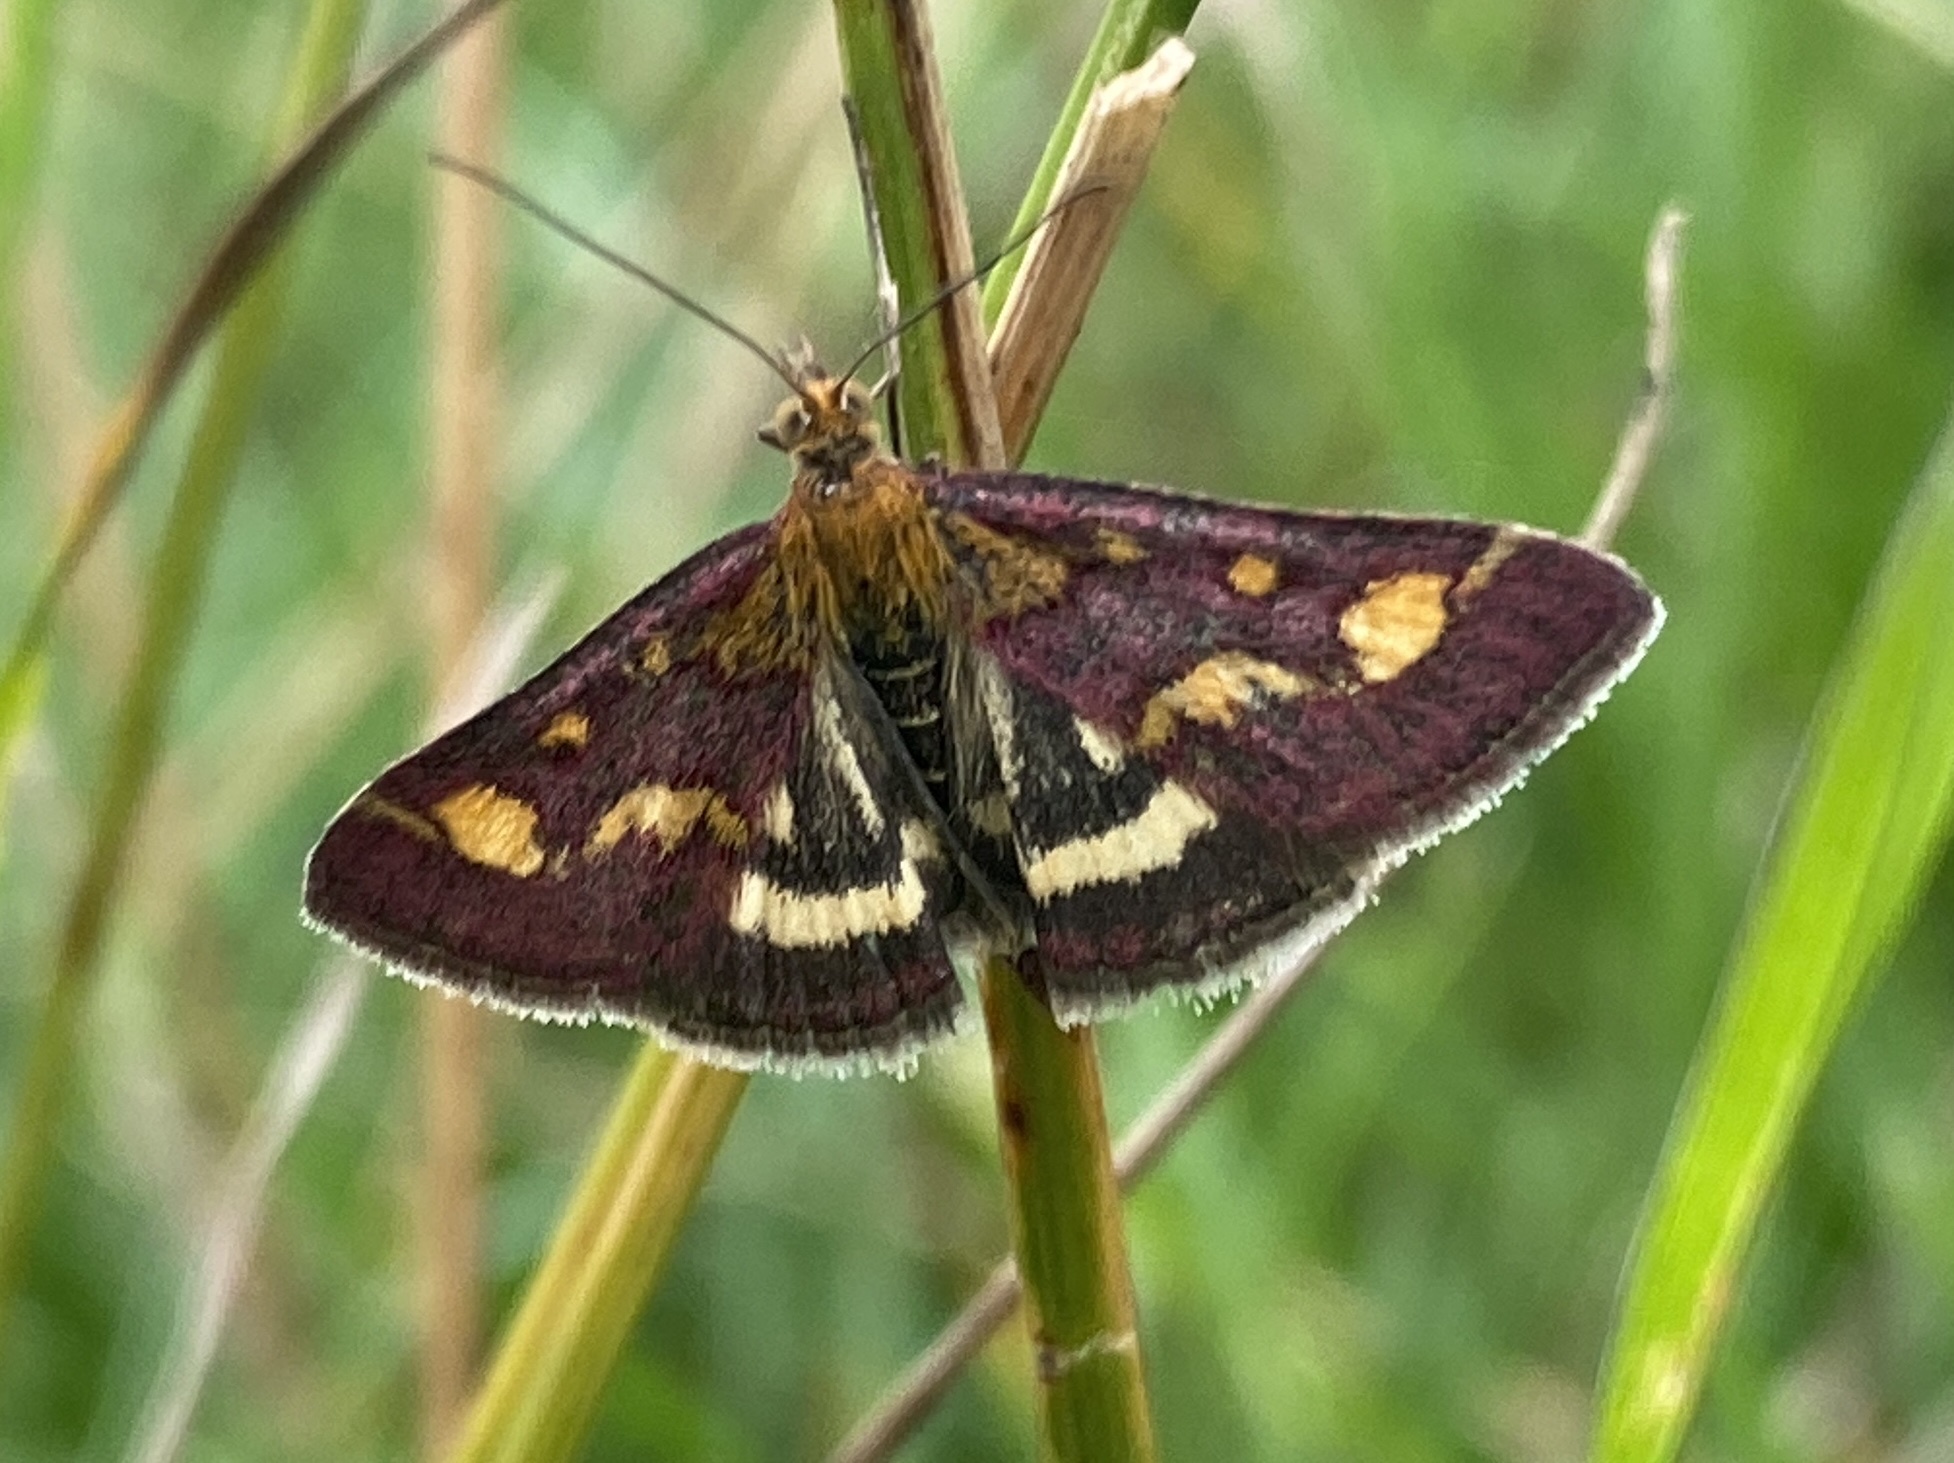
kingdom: Animalia
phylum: Arthropoda
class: Insecta
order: Lepidoptera
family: Crambidae
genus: Pyrausta
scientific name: Pyrausta purpuralis
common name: Common purple & gold
